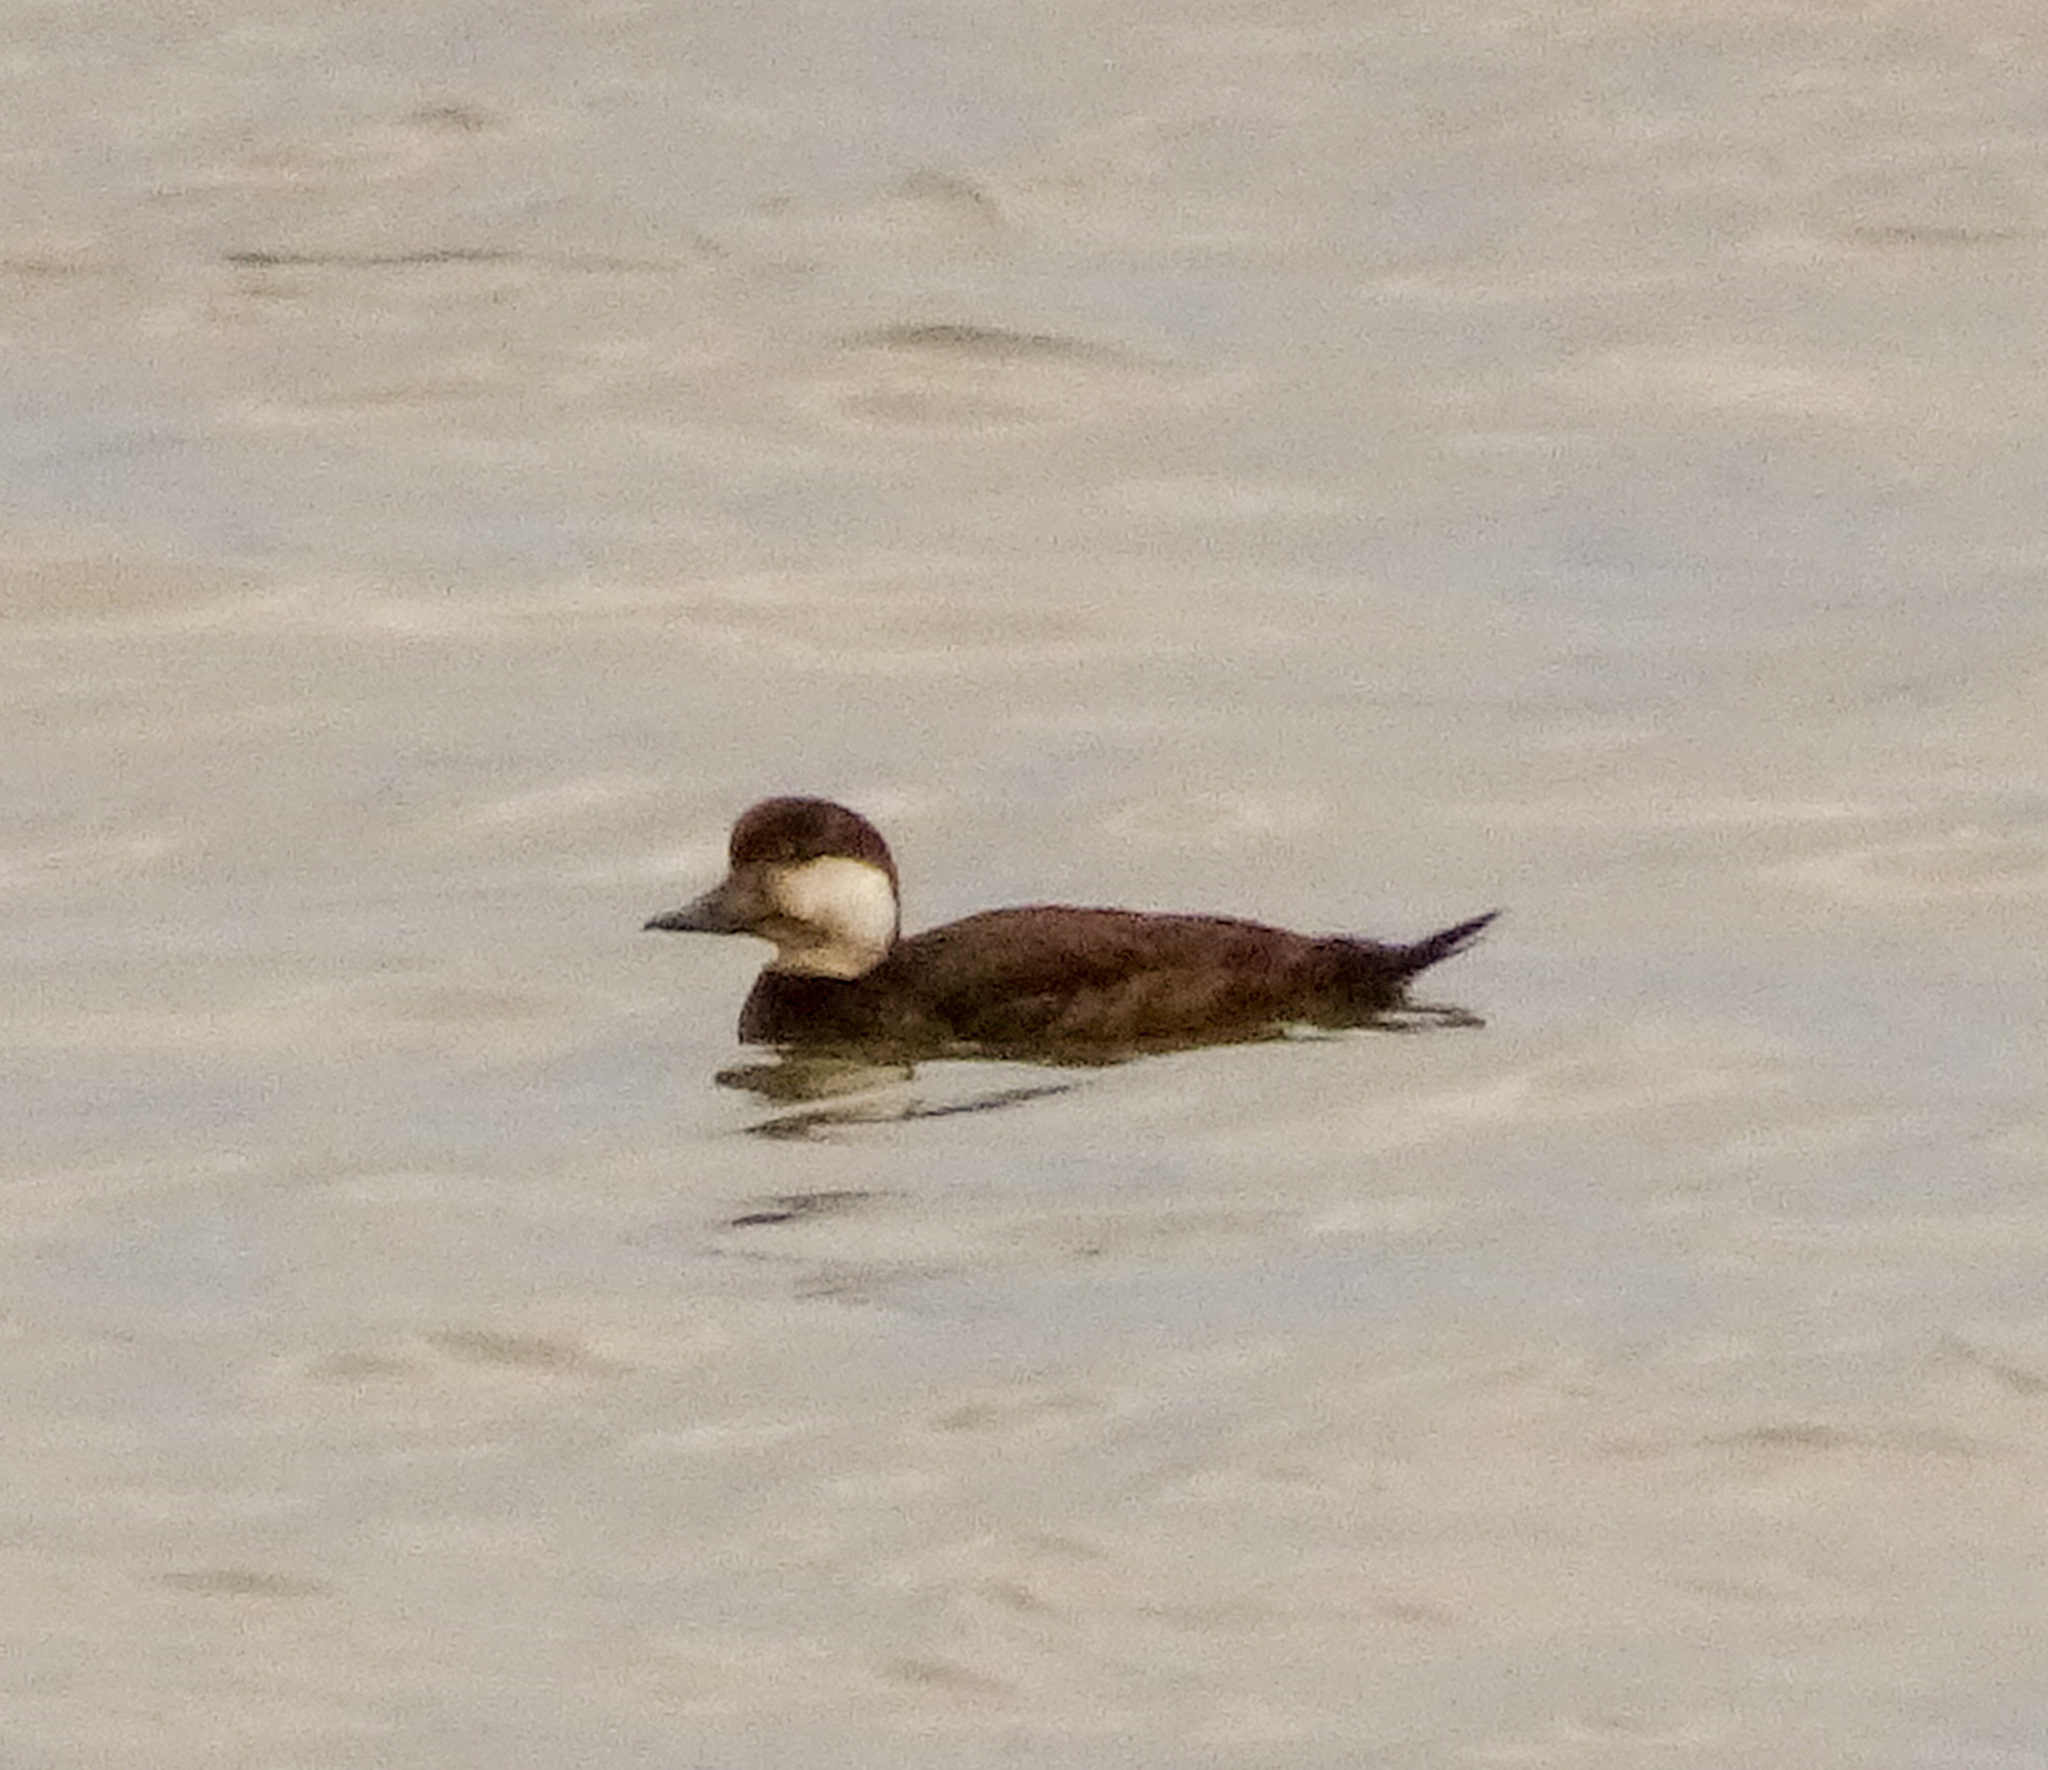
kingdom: Animalia
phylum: Chordata
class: Aves
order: Anseriformes
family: Anatidae
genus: Melanitta
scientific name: Melanitta americana
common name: Black scoter
